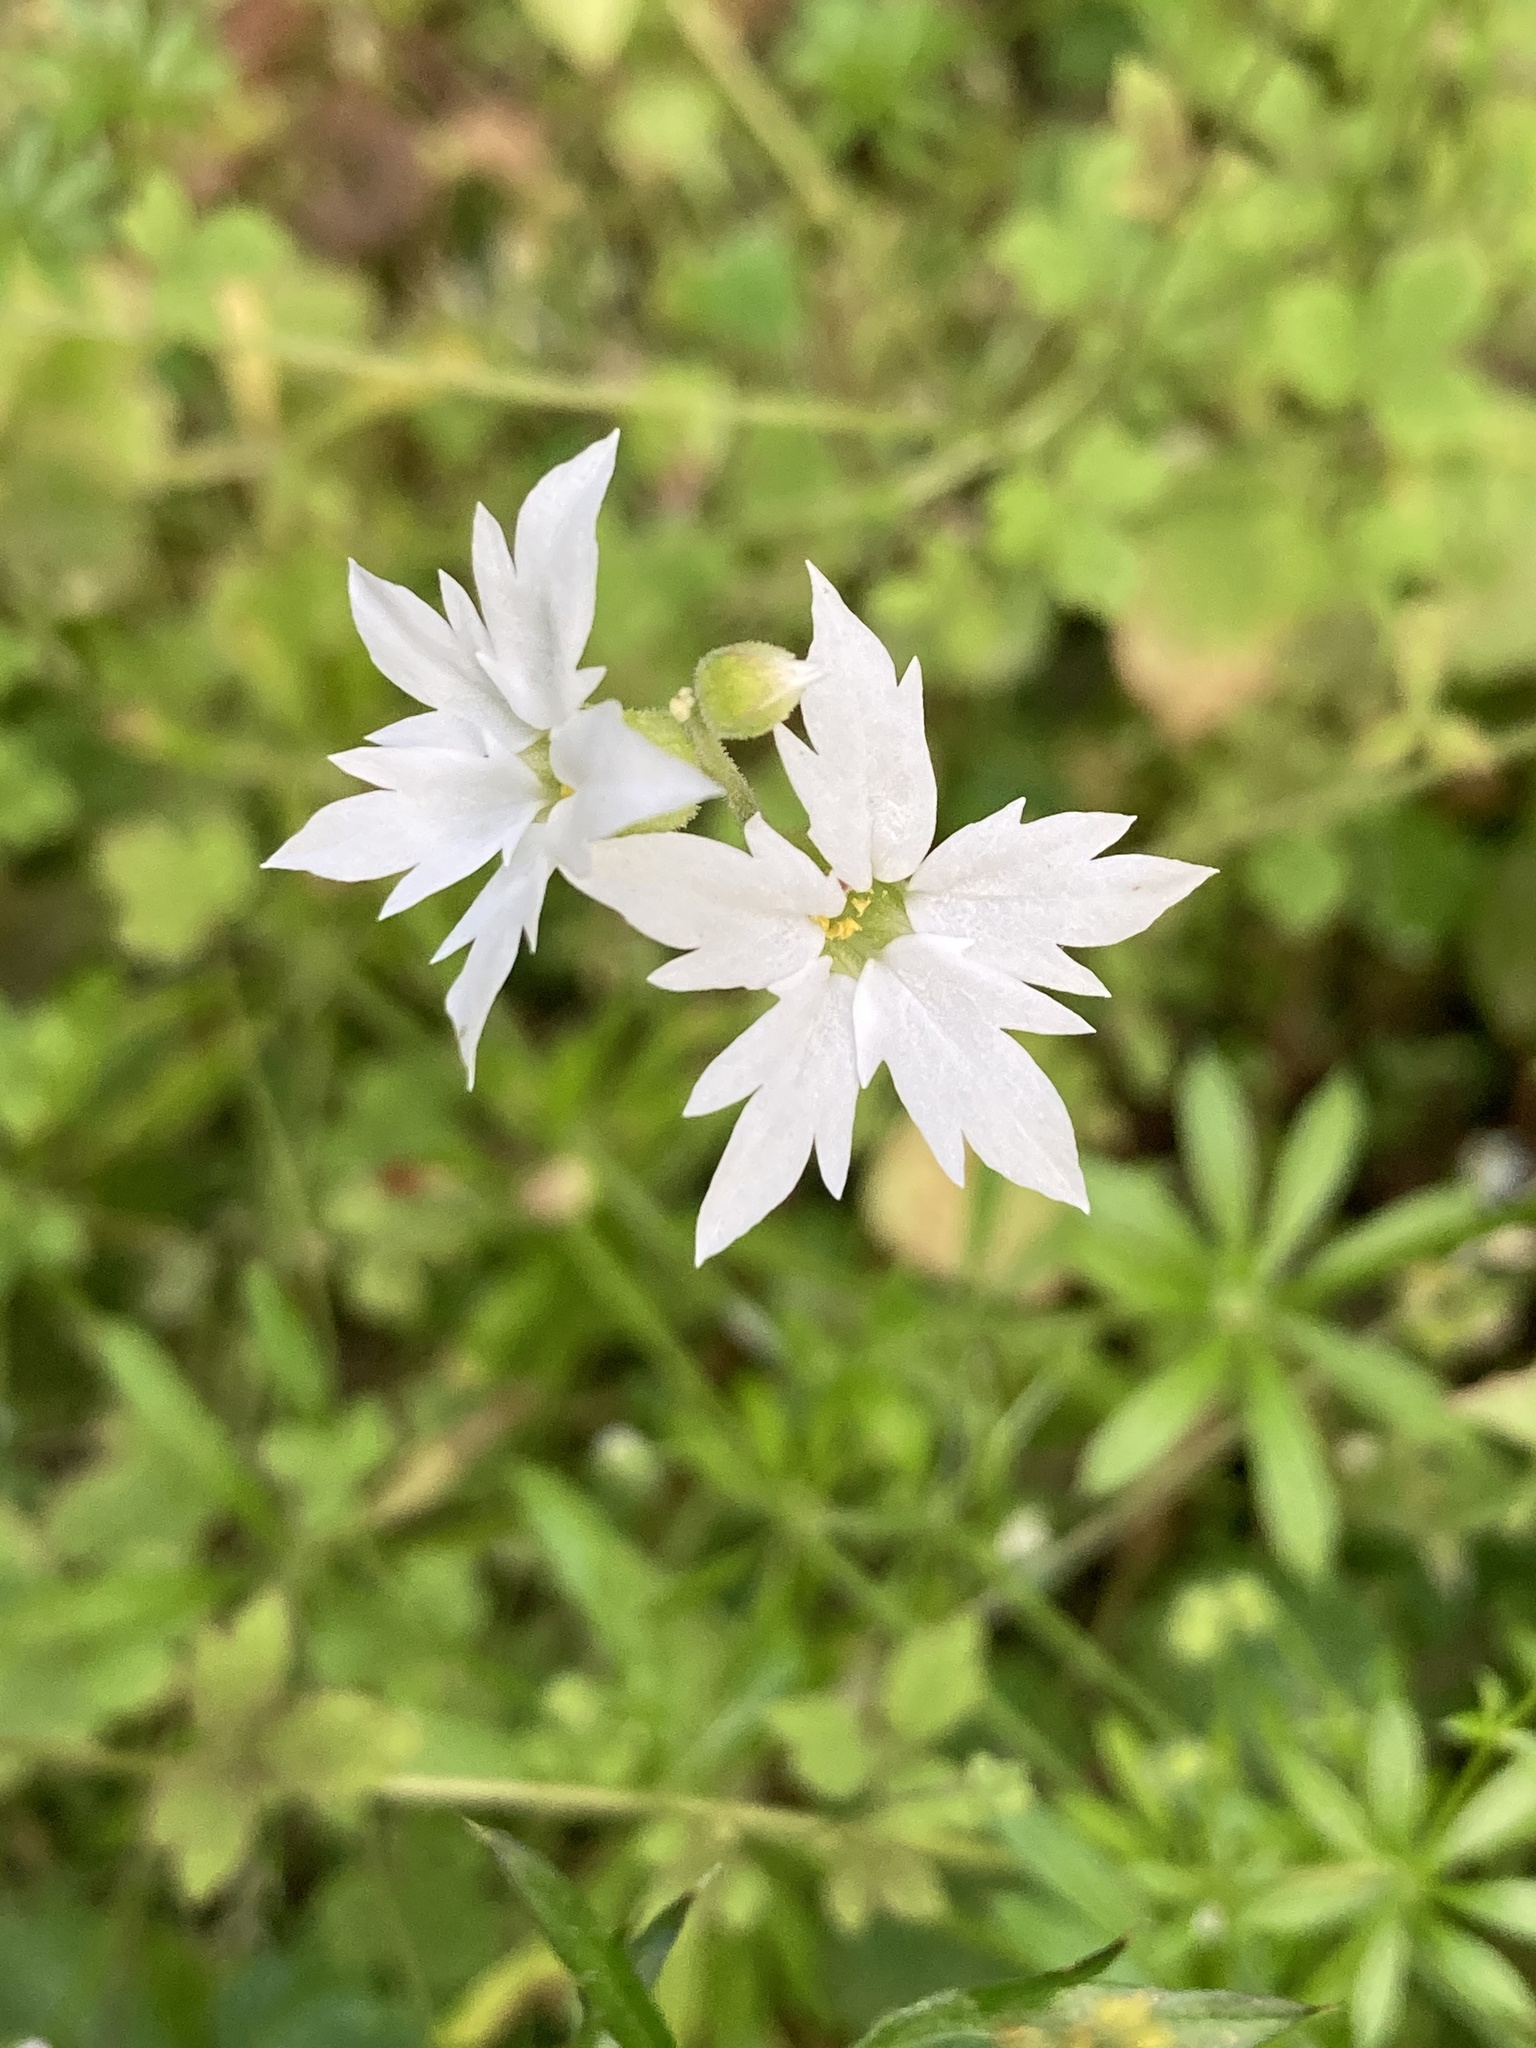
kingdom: Plantae
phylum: Tracheophyta
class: Magnoliopsida
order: Saxifragales
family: Saxifragaceae
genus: Lithophragma
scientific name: Lithophragma heterophyllum
